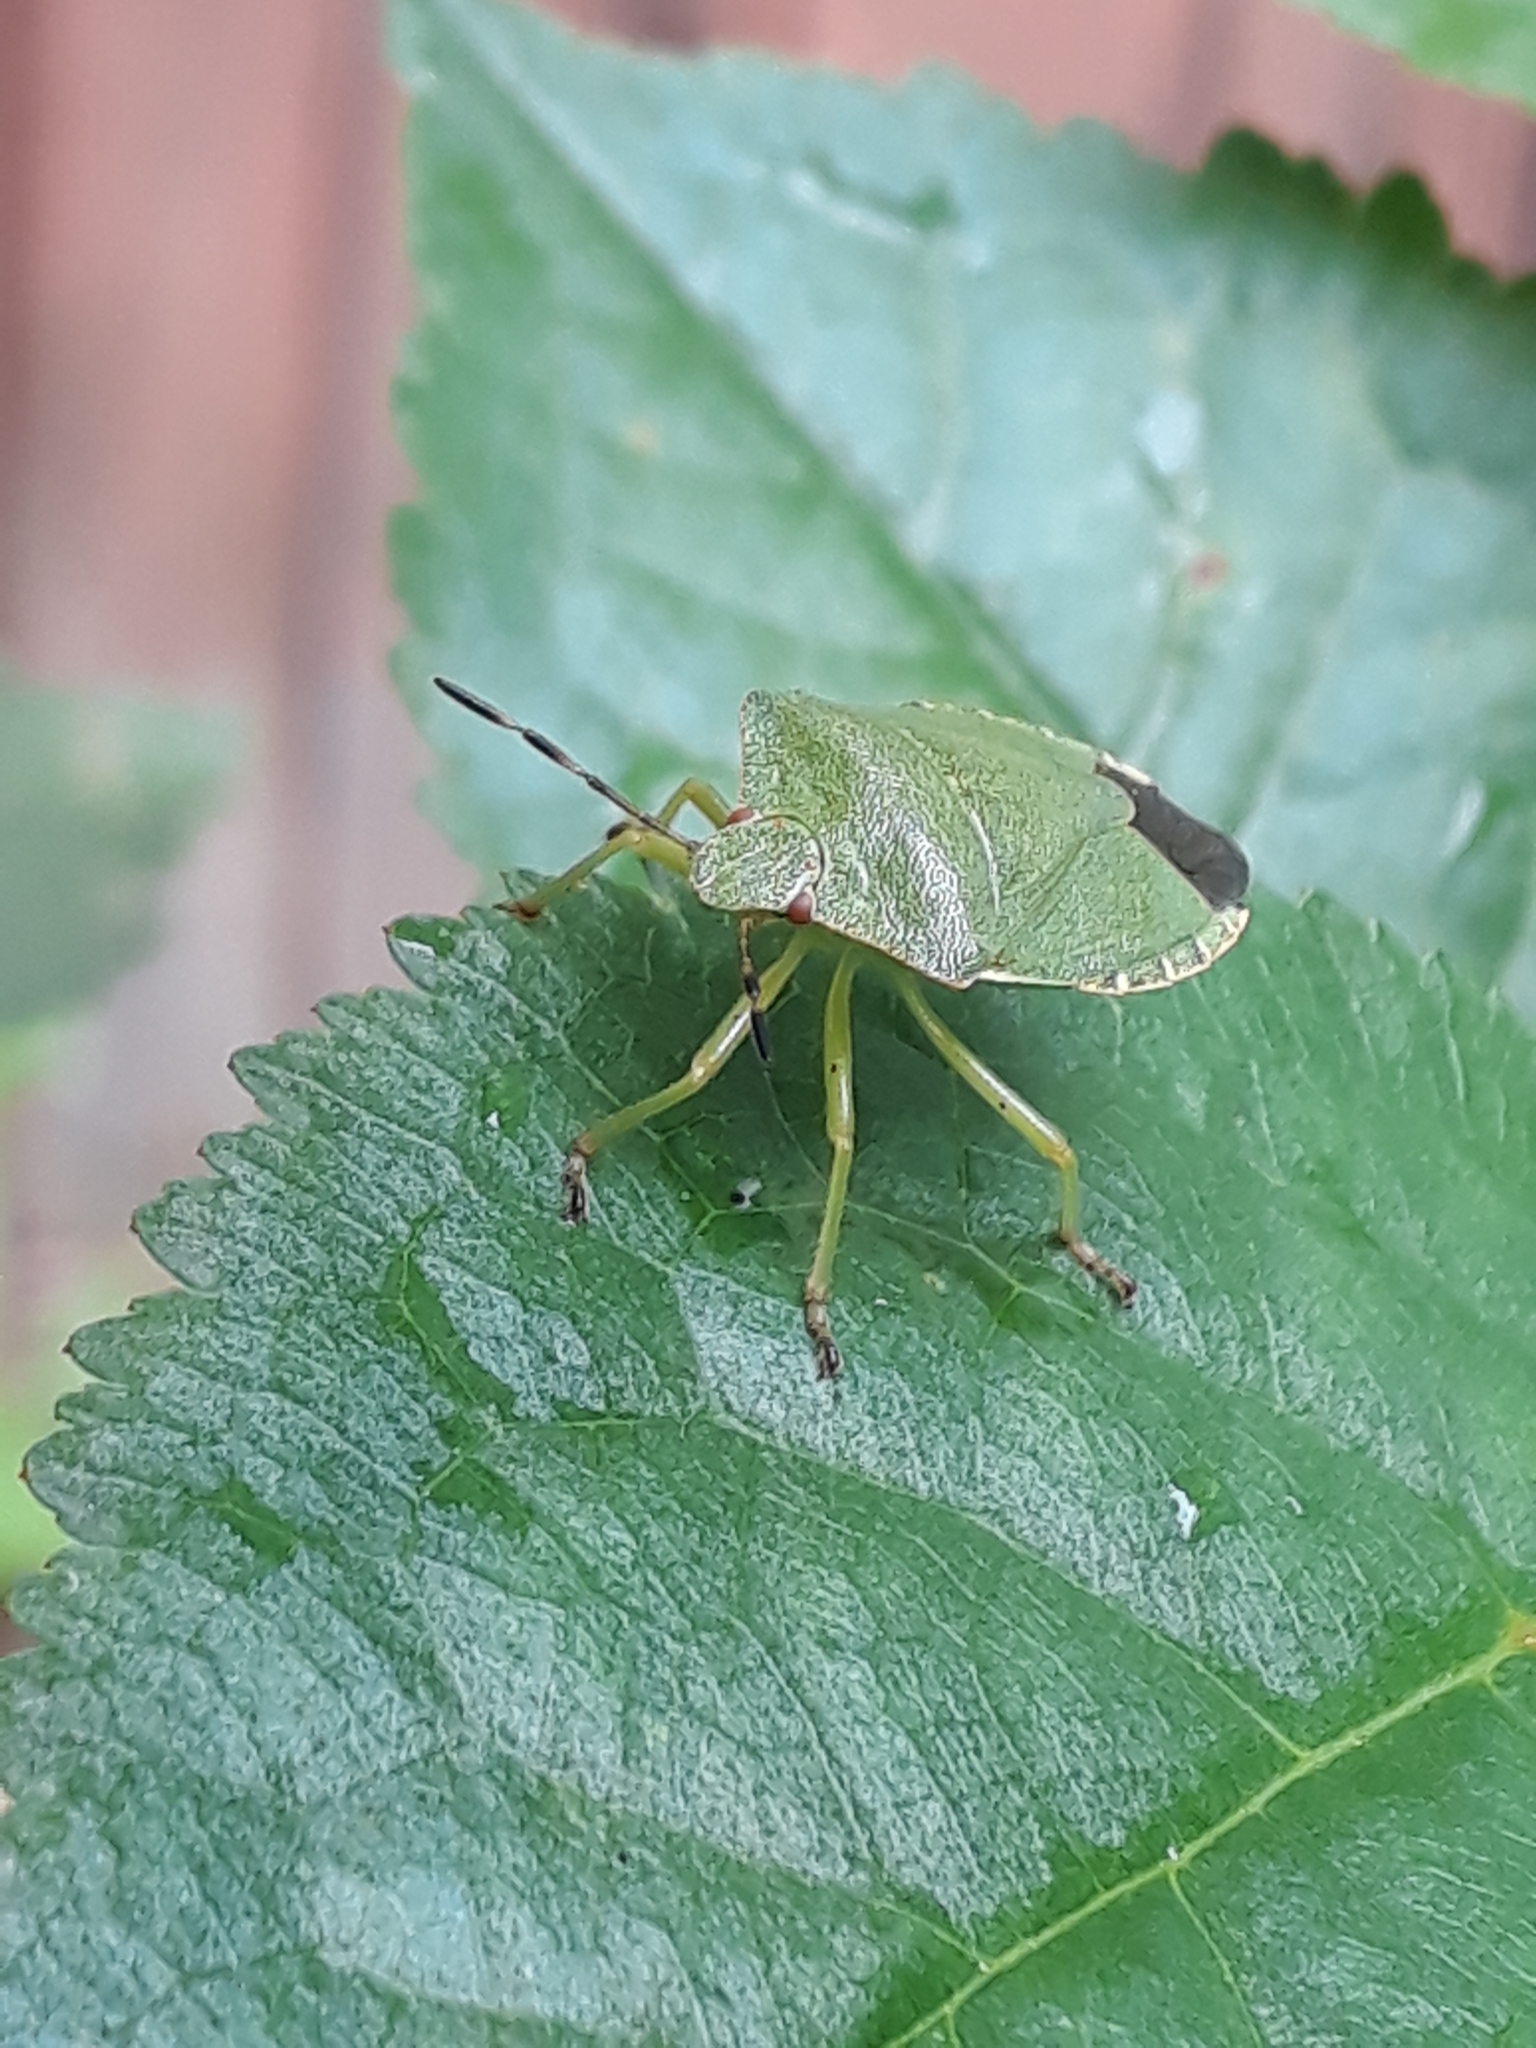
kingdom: Animalia
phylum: Arthropoda
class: Insecta
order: Hemiptera
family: Pentatomidae
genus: Palomena
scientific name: Palomena prasina
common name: Green shieldbug
